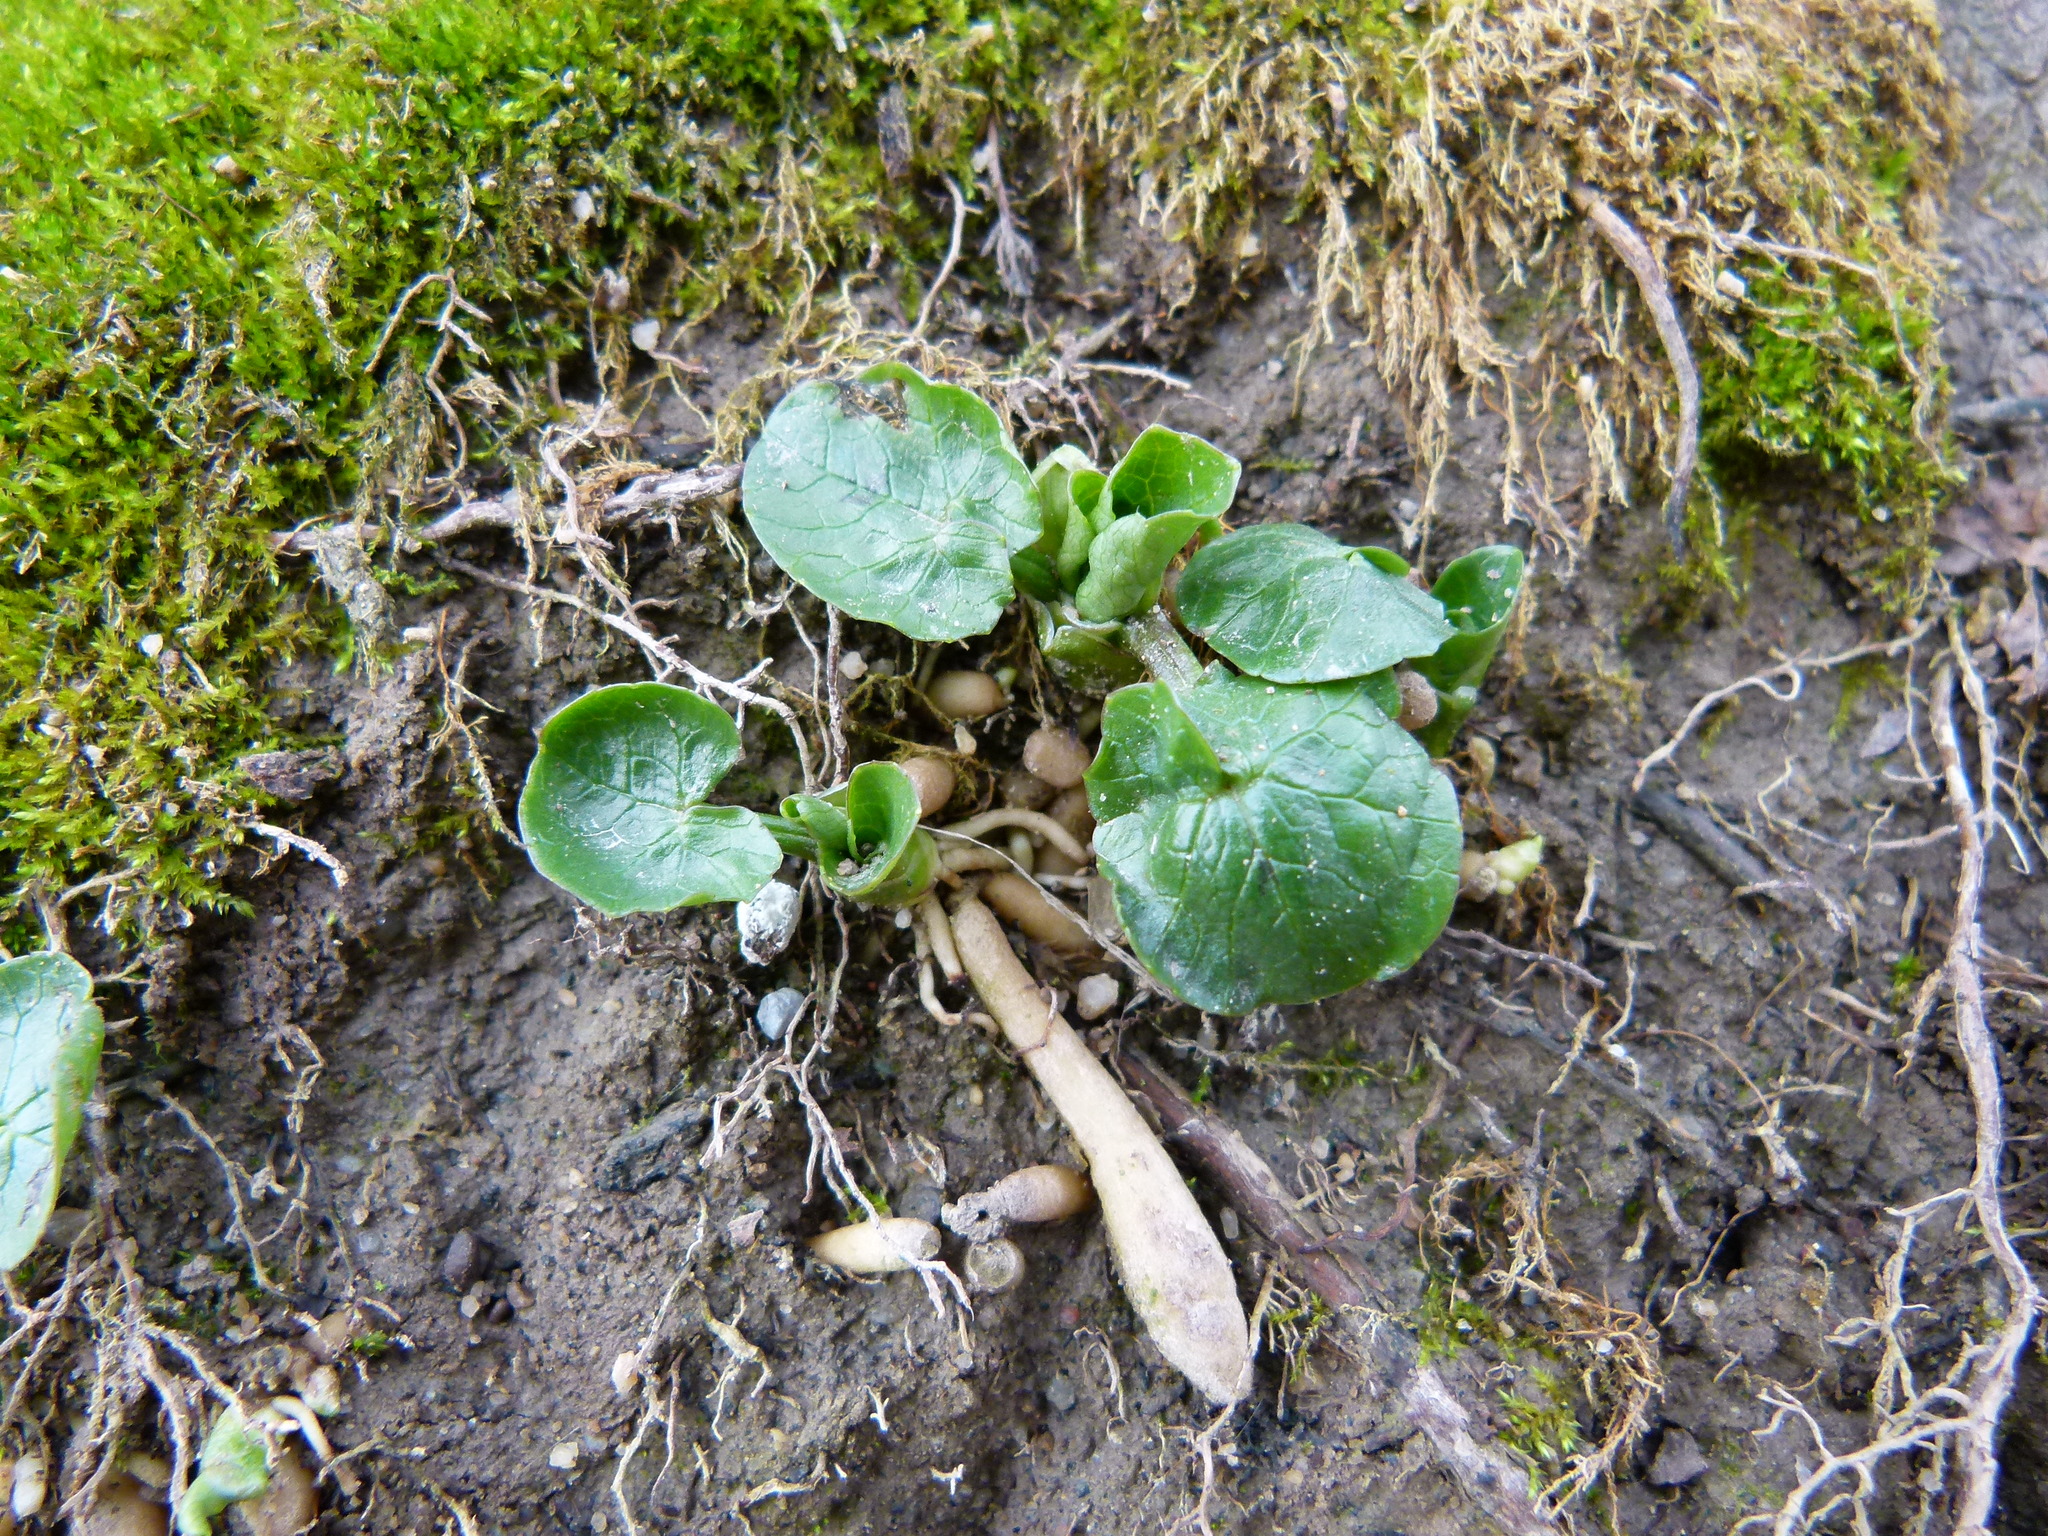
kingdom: Plantae
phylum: Tracheophyta
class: Magnoliopsida
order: Ranunculales
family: Ranunculaceae
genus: Ficaria
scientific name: Ficaria verna
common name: Lesser celandine
